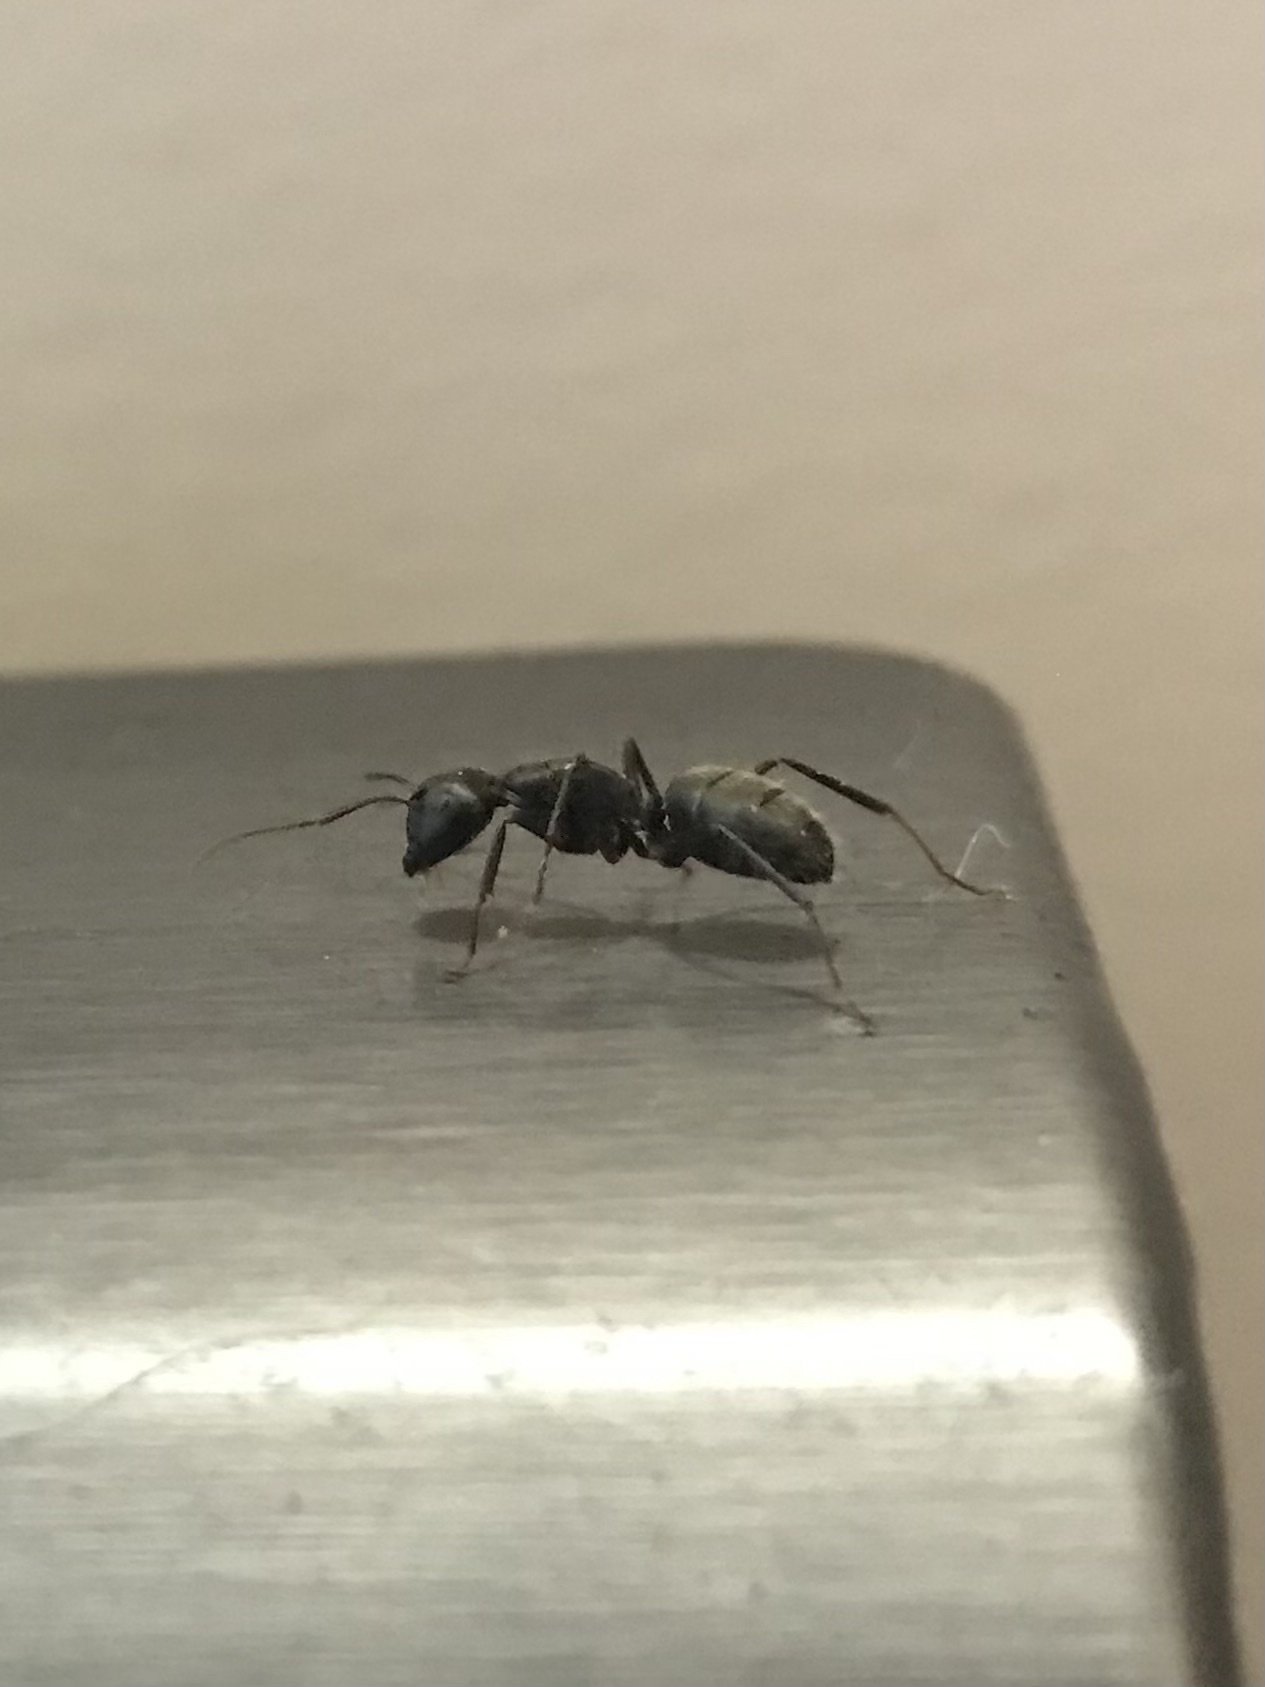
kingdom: Animalia
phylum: Arthropoda
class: Insecta
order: Hymenoptera
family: Formicidae
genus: Camponotus
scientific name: Camponotus pennsylvanicus
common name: Black carpenter ant
